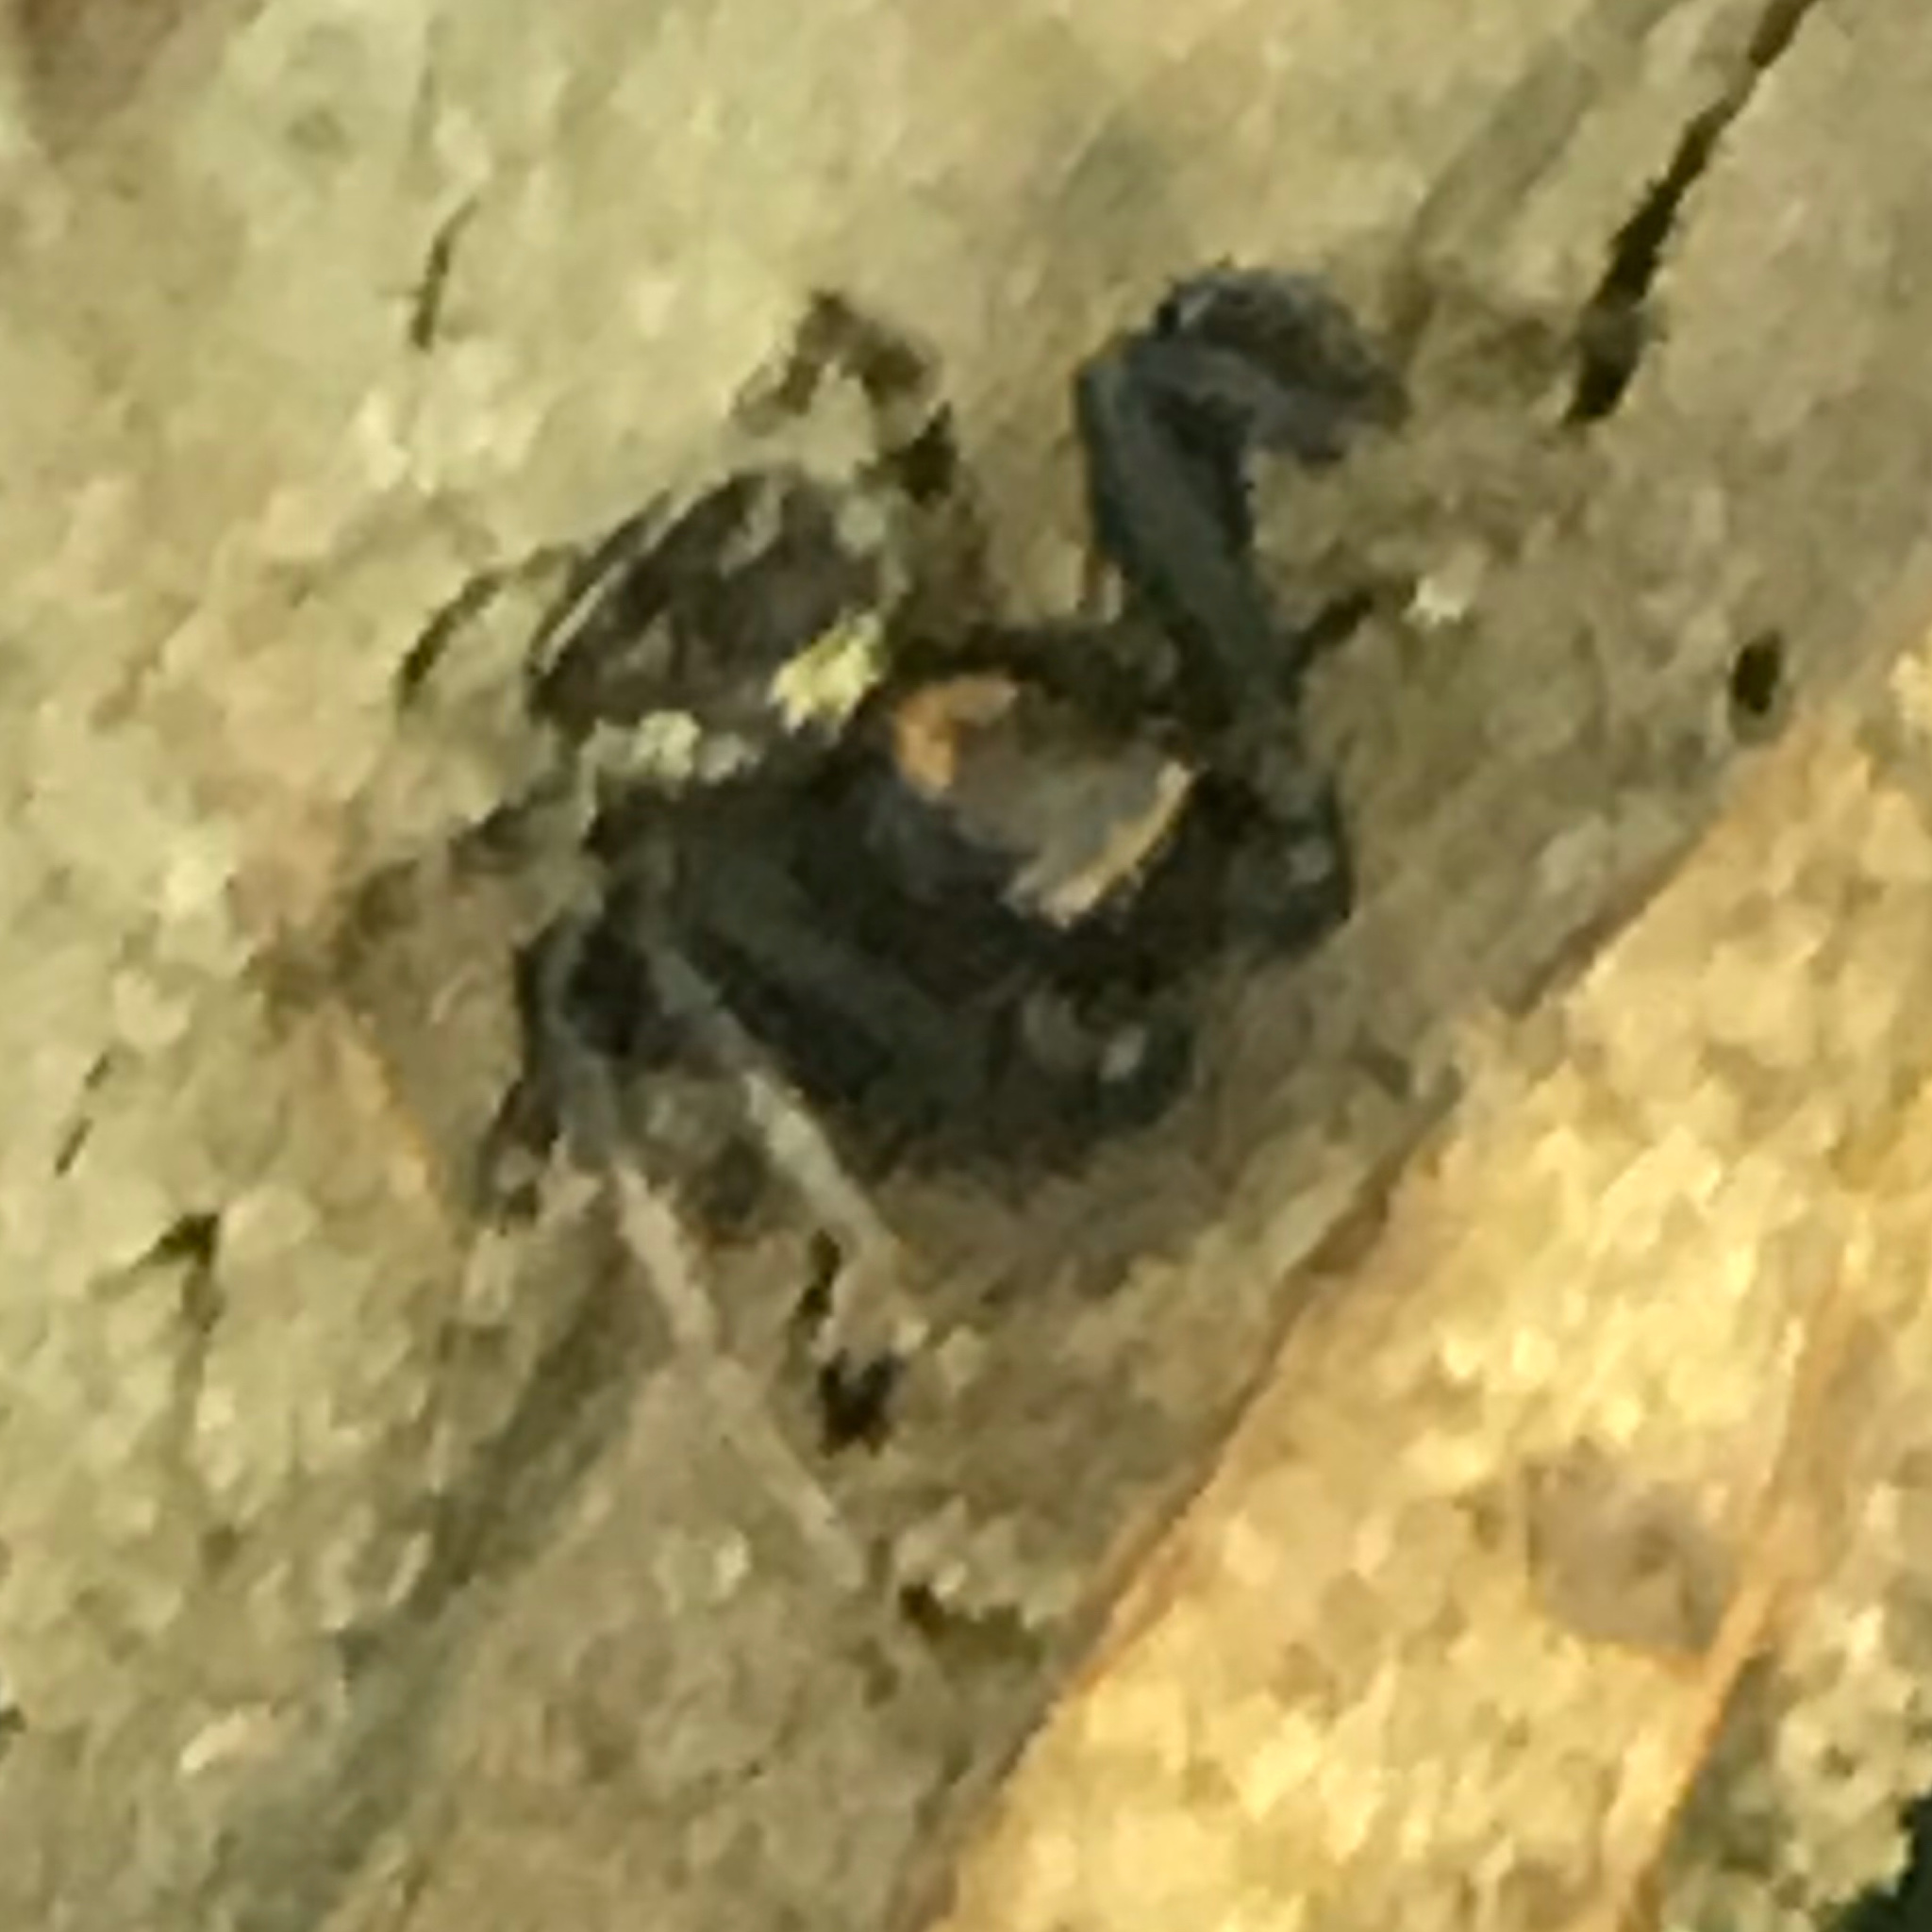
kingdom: Animalia
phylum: Arthropoda
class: Arachnida
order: Araneae
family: Thomisidae
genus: Xysticus
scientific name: Xysticus fraternus
